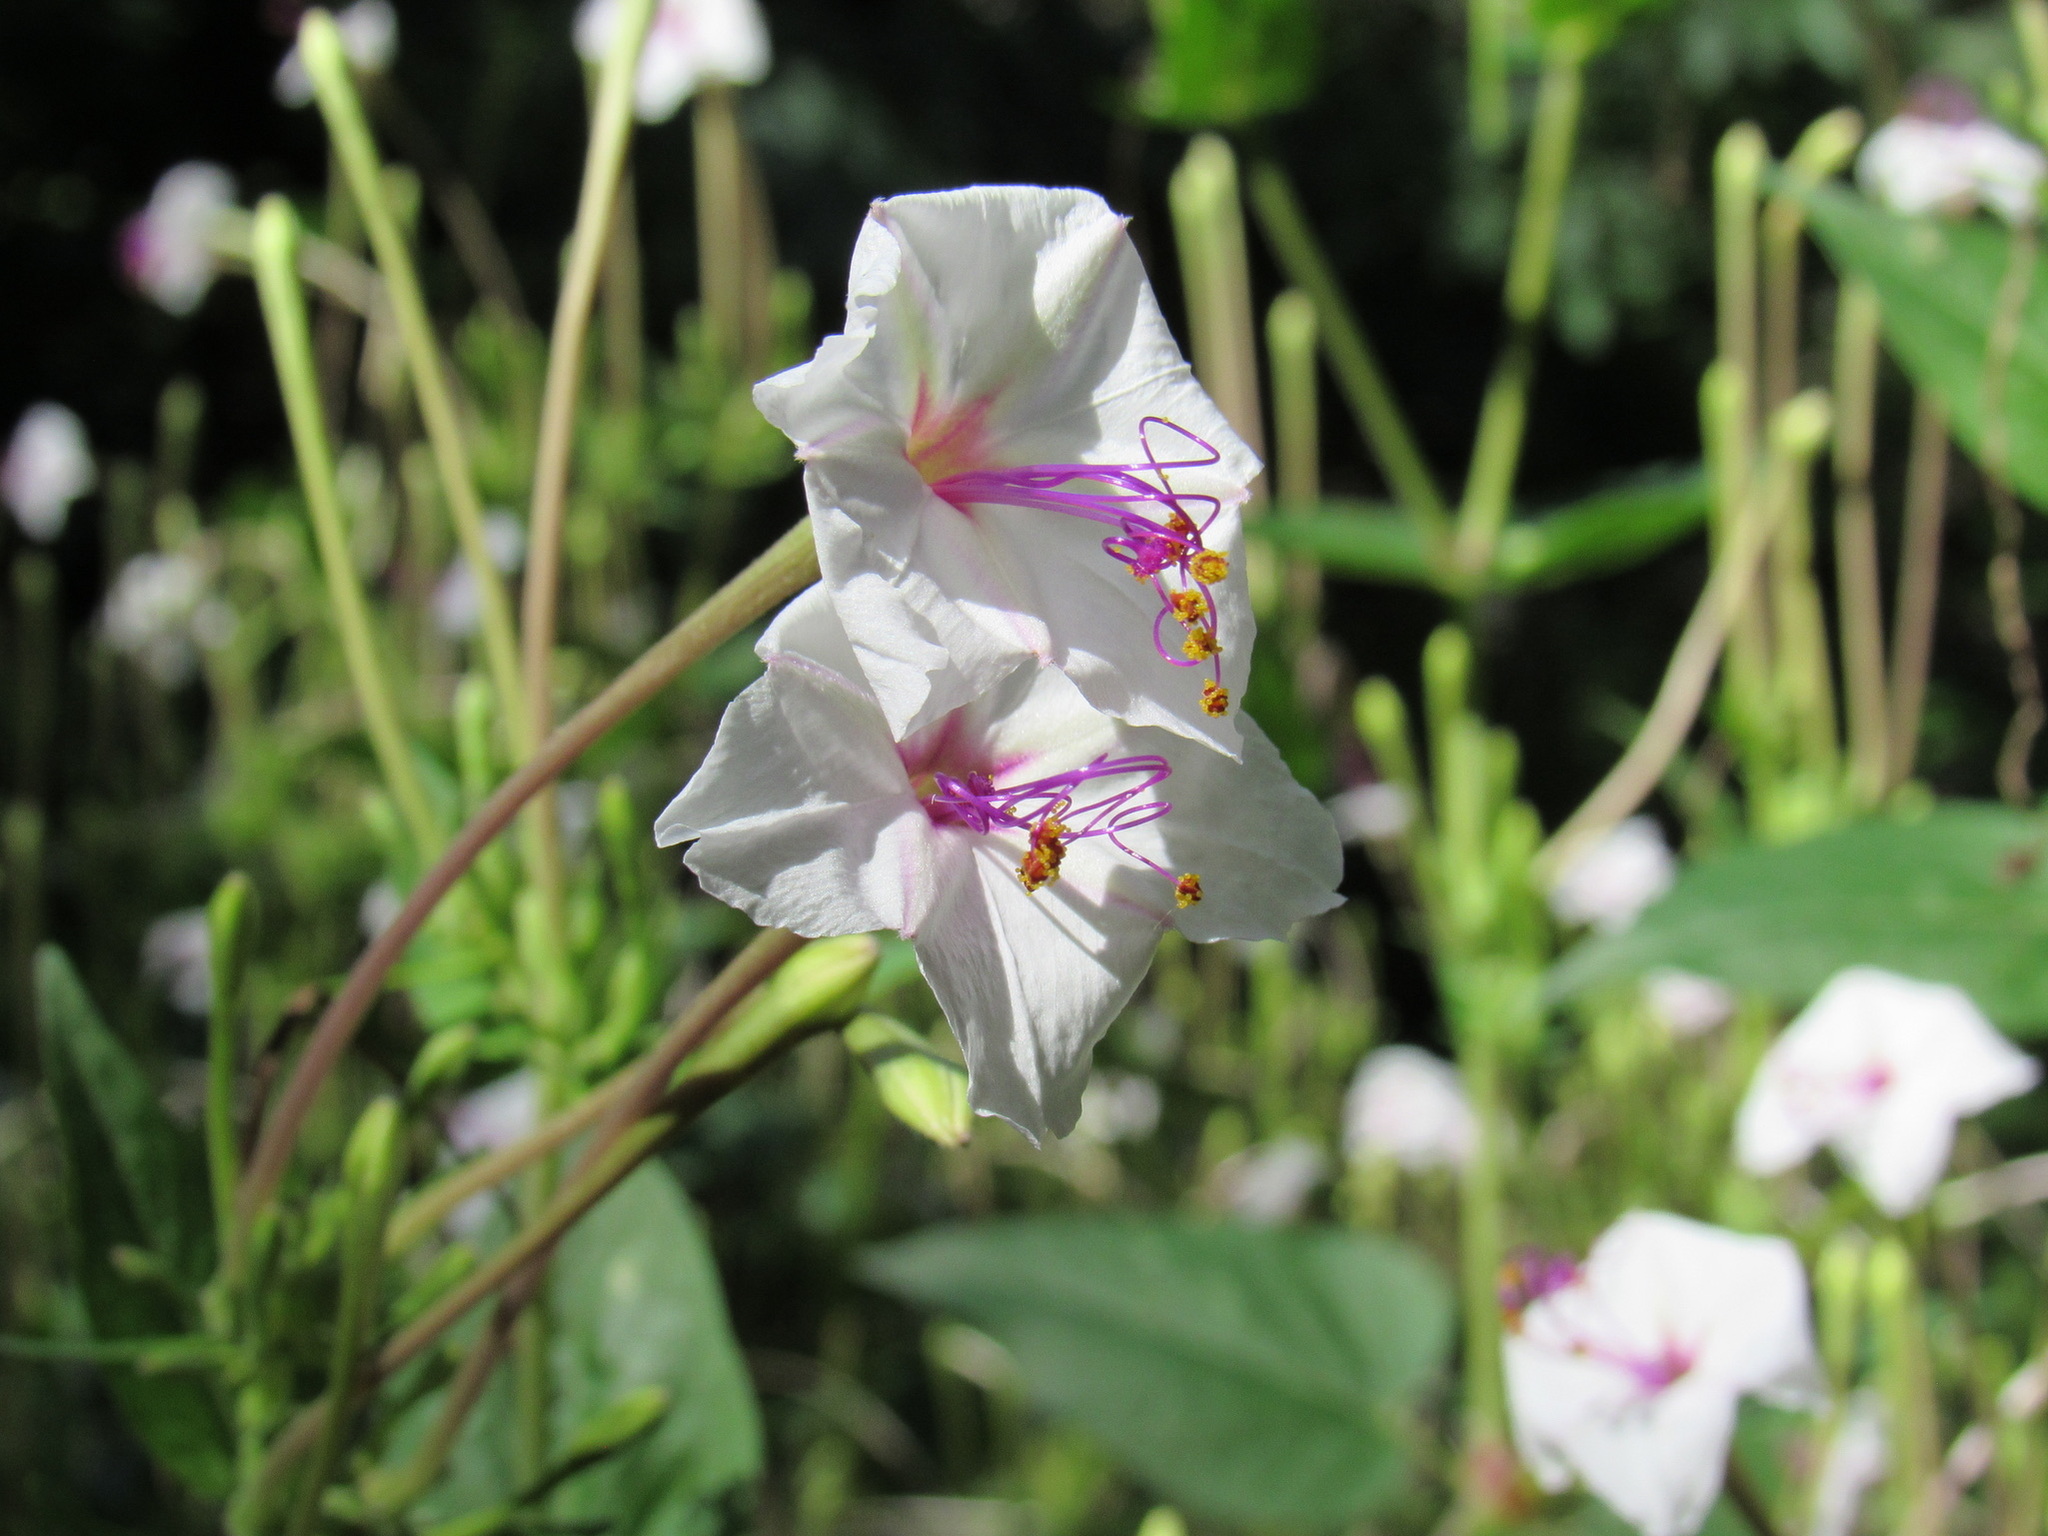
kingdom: Plantae
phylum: Tracheophyta
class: Magnoliopsida
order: Caryophyllales
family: Nyctaginaceae
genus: Mirabilis
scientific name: Mirabilis longiflora
